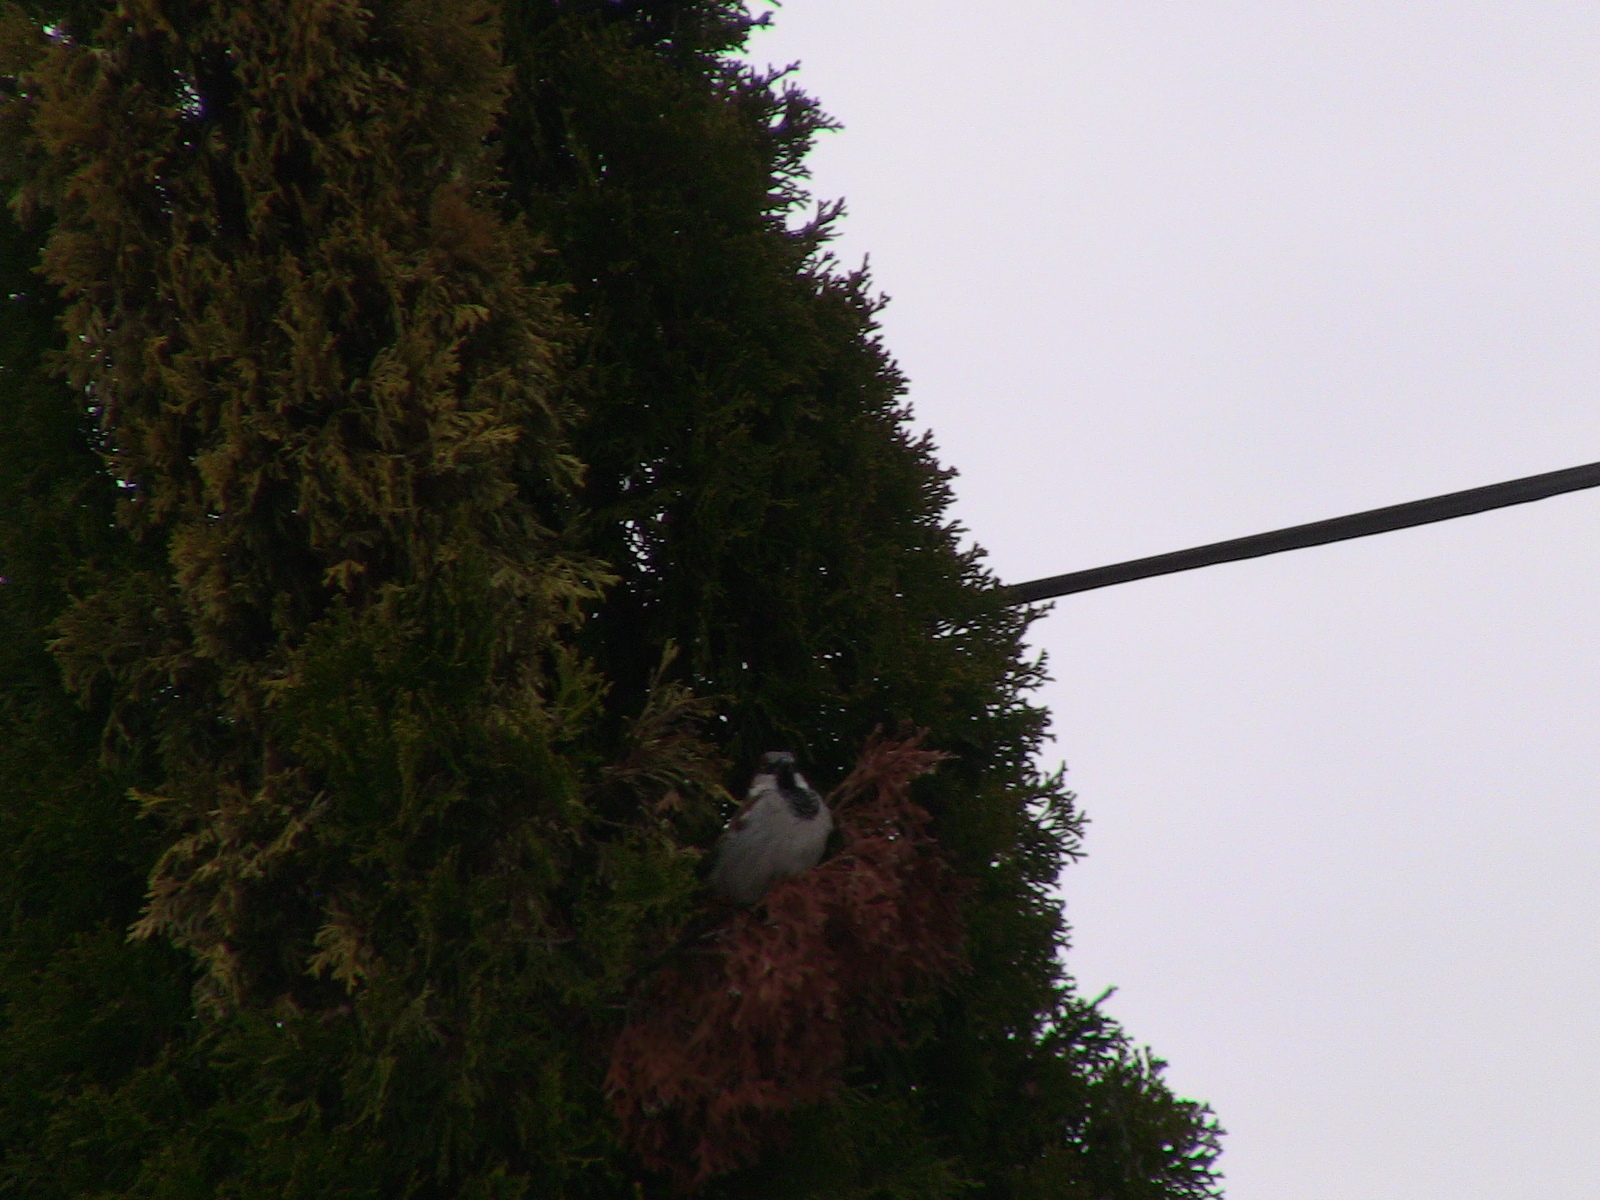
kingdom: Animalia
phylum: Chordata
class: Aves
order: Passeriformes
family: Passeridae
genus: Passer
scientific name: Passer domesticus
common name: House sparrow
